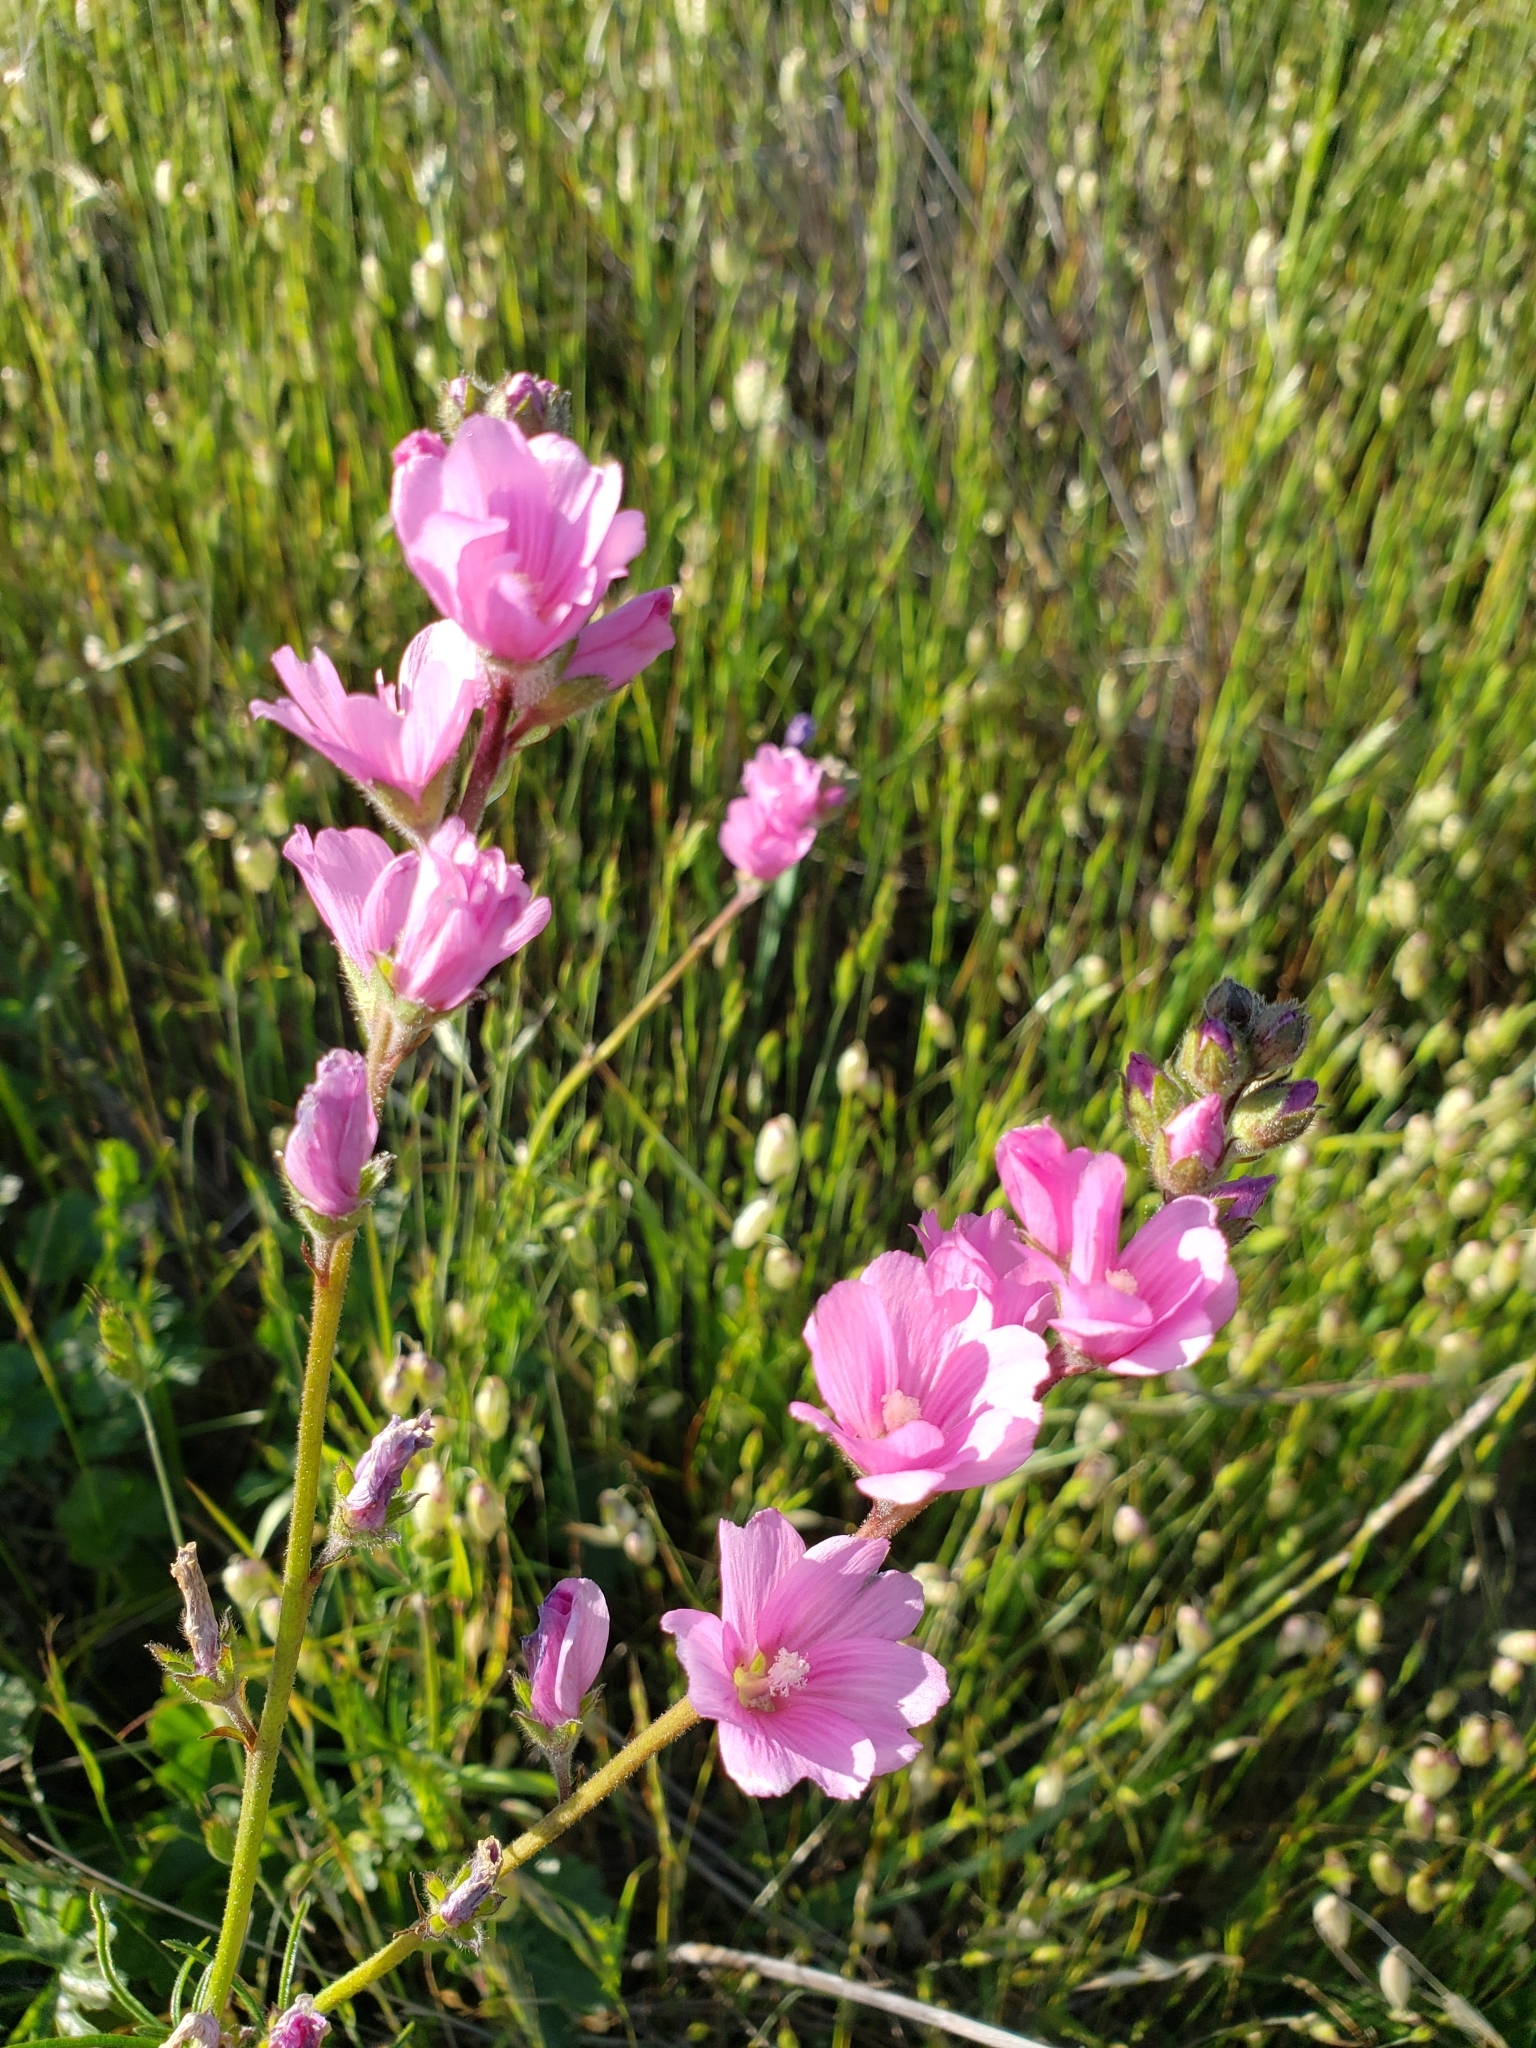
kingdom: Plantae
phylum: Tracheophyta
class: Magnoliopsida
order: Malvales
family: Malvaceae
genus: Sidalcea
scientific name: Sidalcea malviflora
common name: Greek mallow
